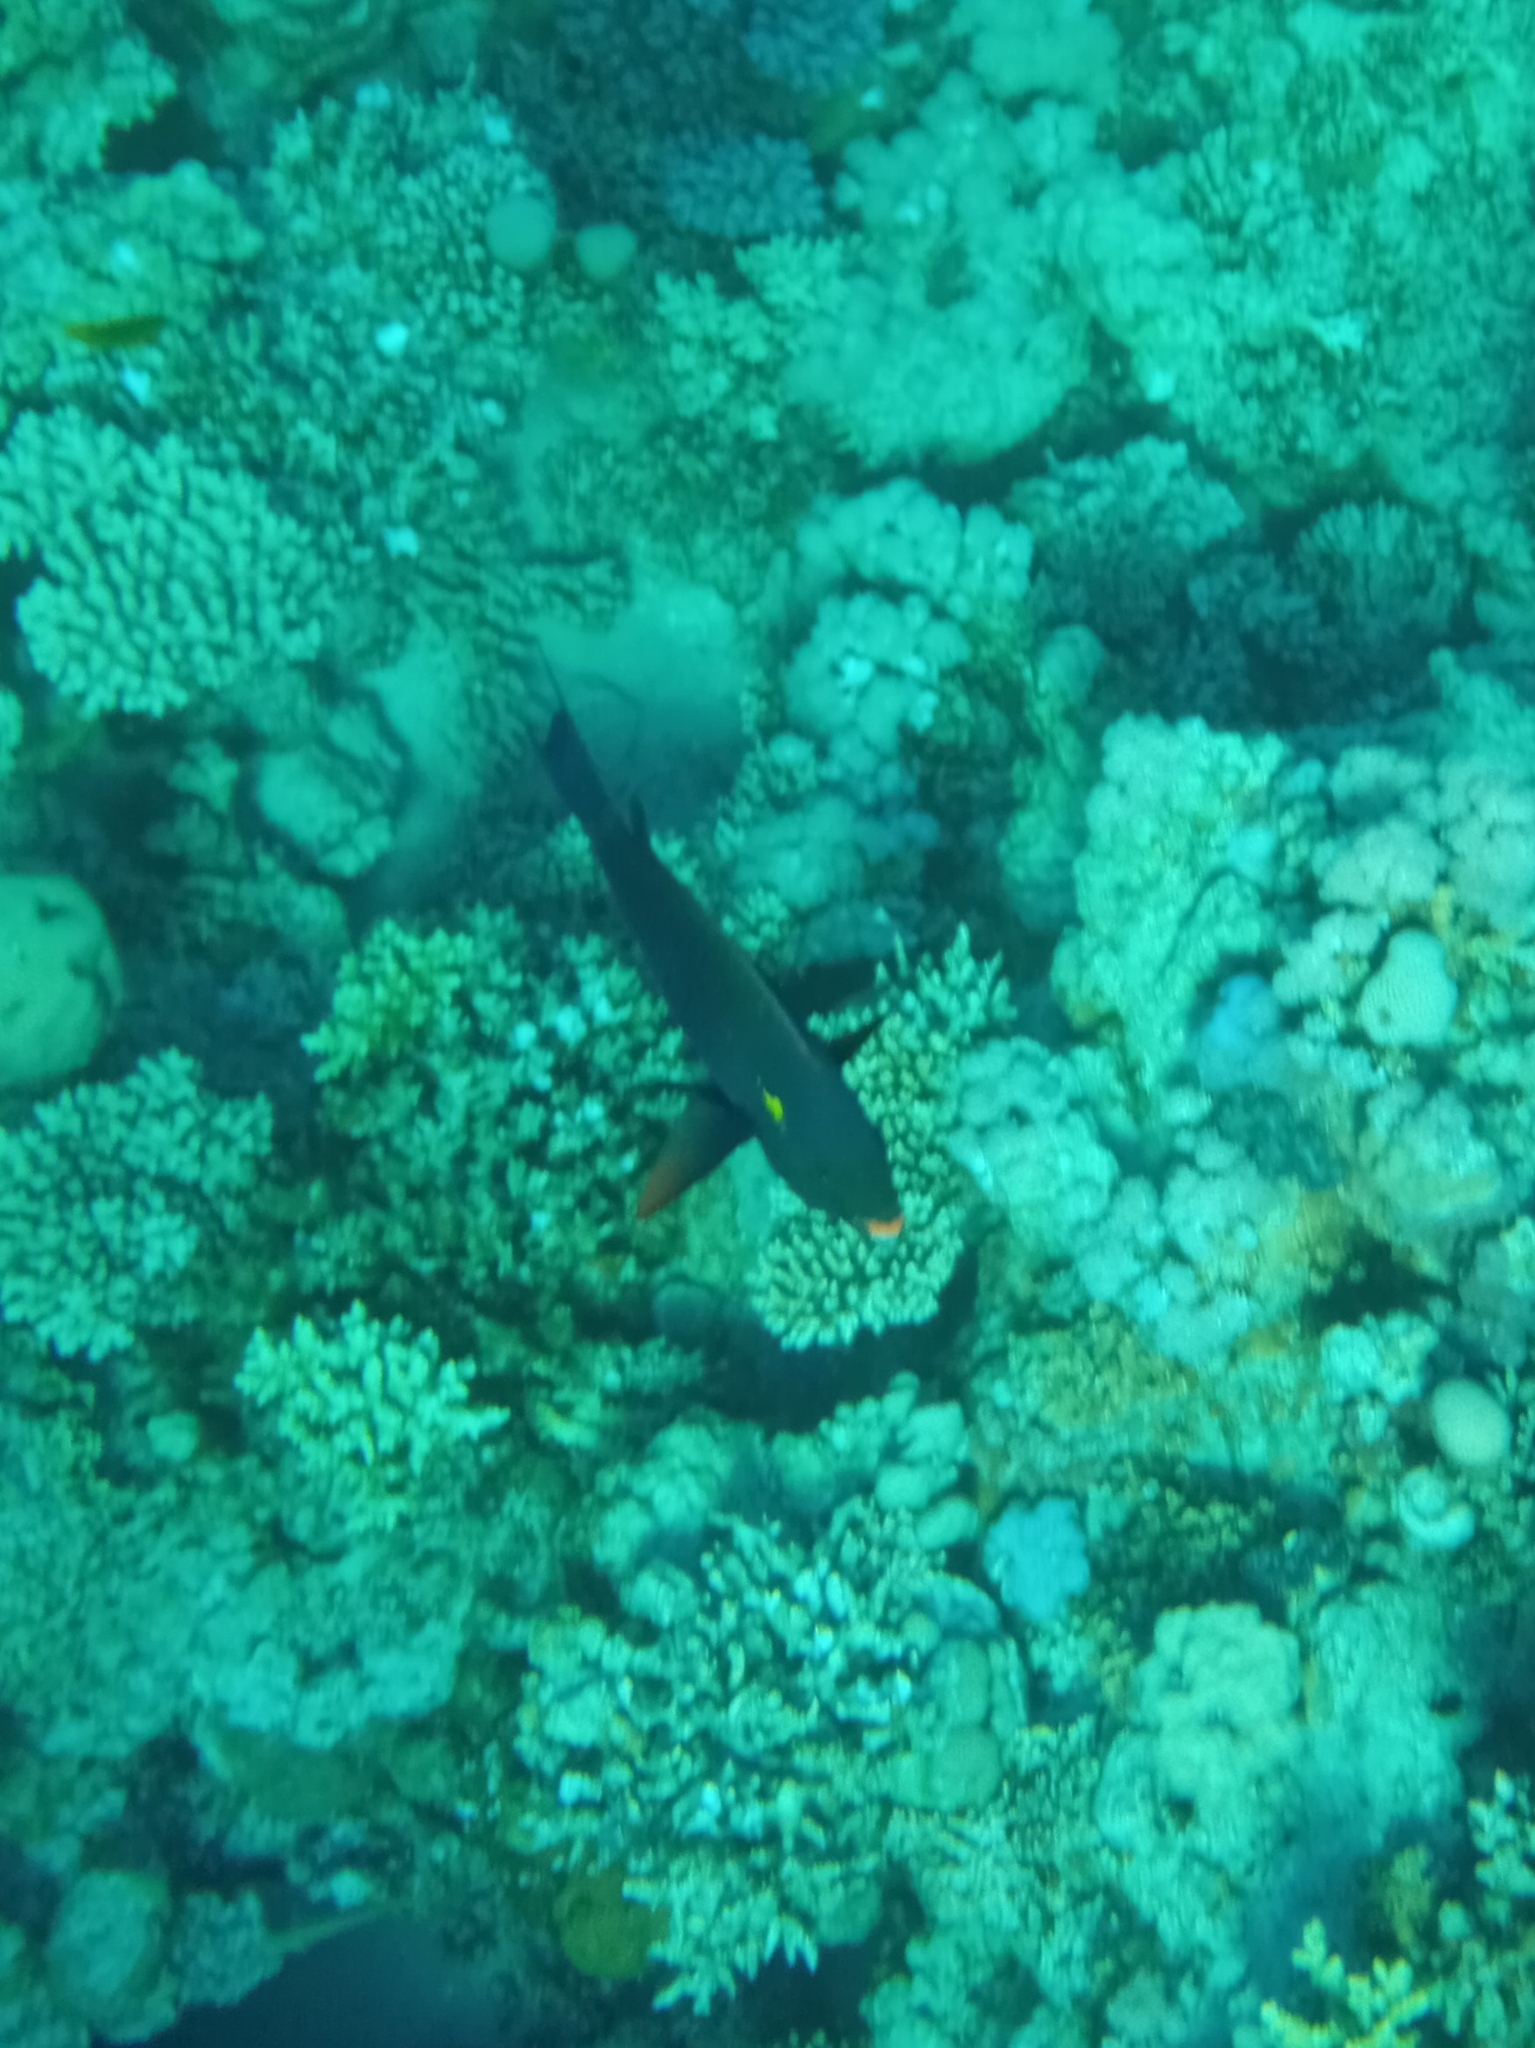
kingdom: Animalia
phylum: Chordata
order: Perciformes
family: Scaridae
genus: Scarus
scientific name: Scarus niger
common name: Dusky parrotfish
